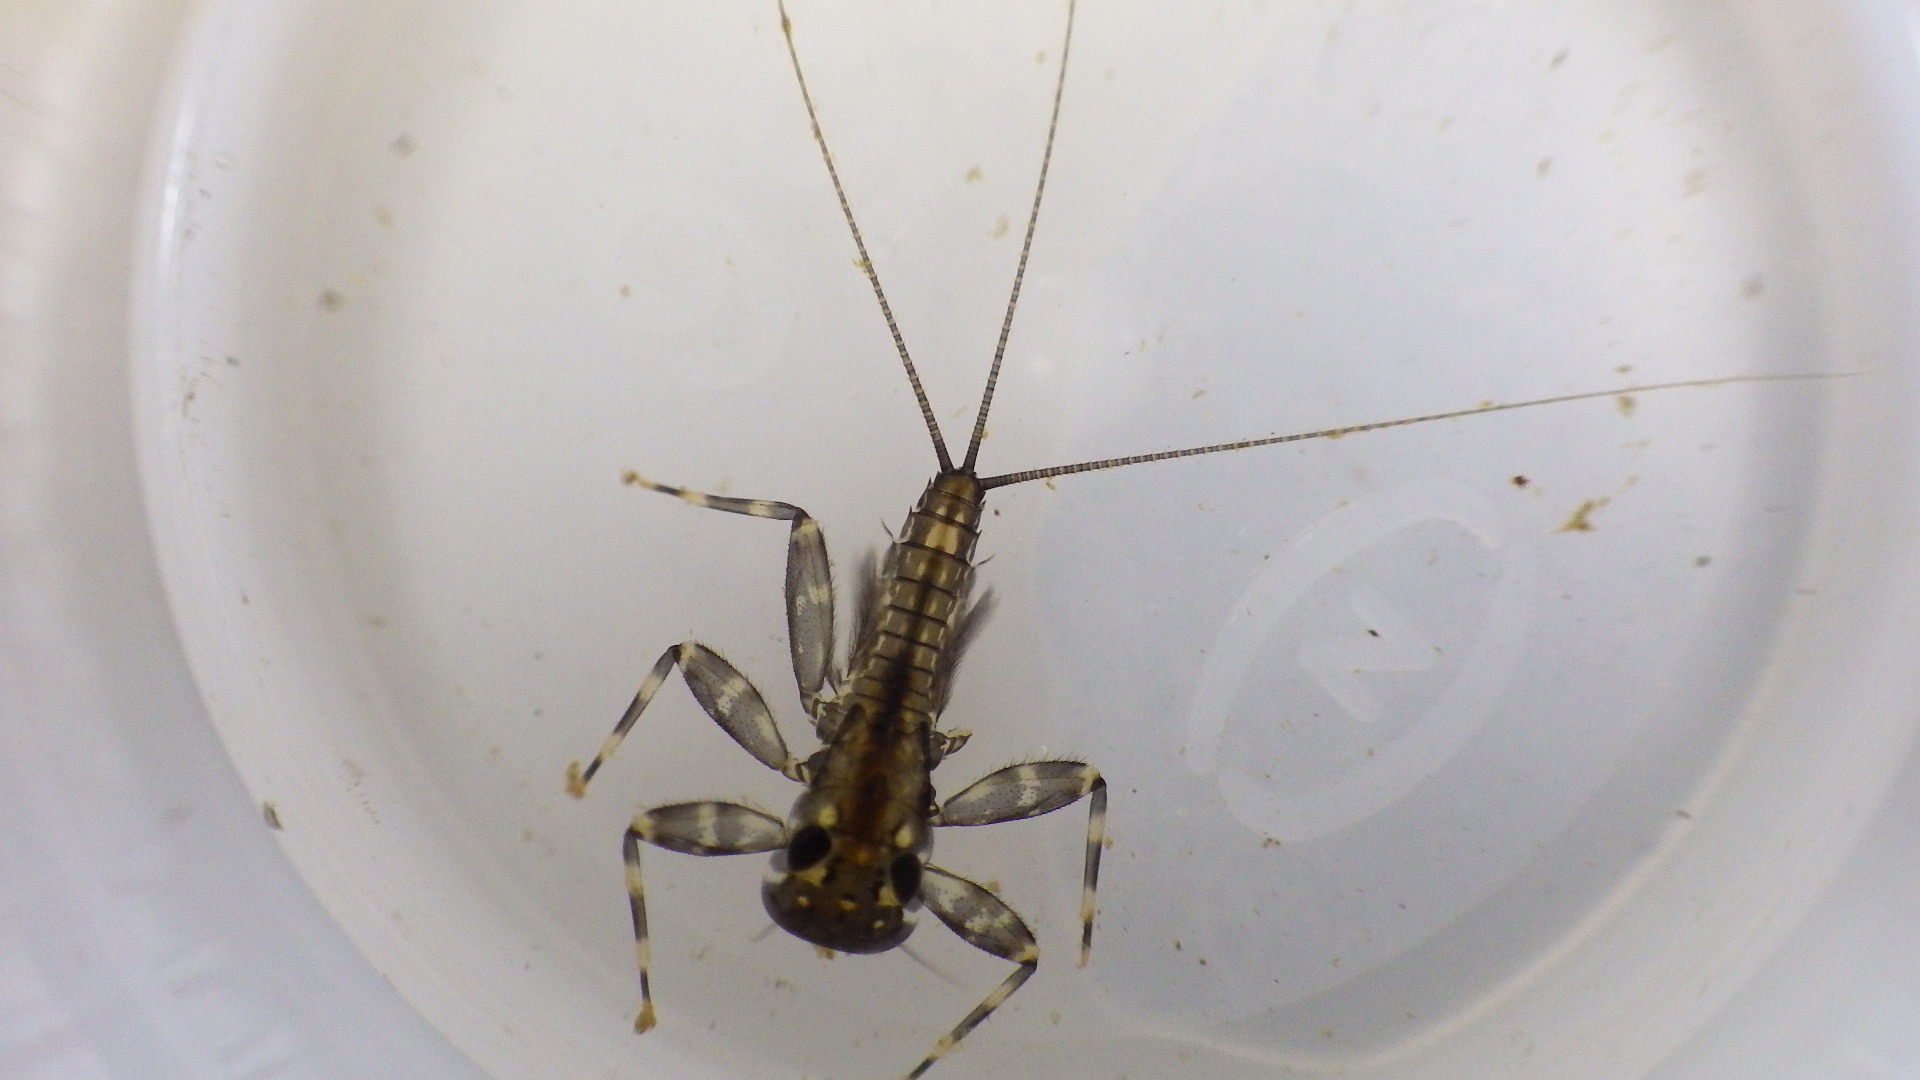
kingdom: Animalia
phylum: Arthropoda
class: Insecta
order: Ephemeroptera
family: Heptageniidae
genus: Stenacron
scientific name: Stenacron interpunctatum
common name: Orange cahill
